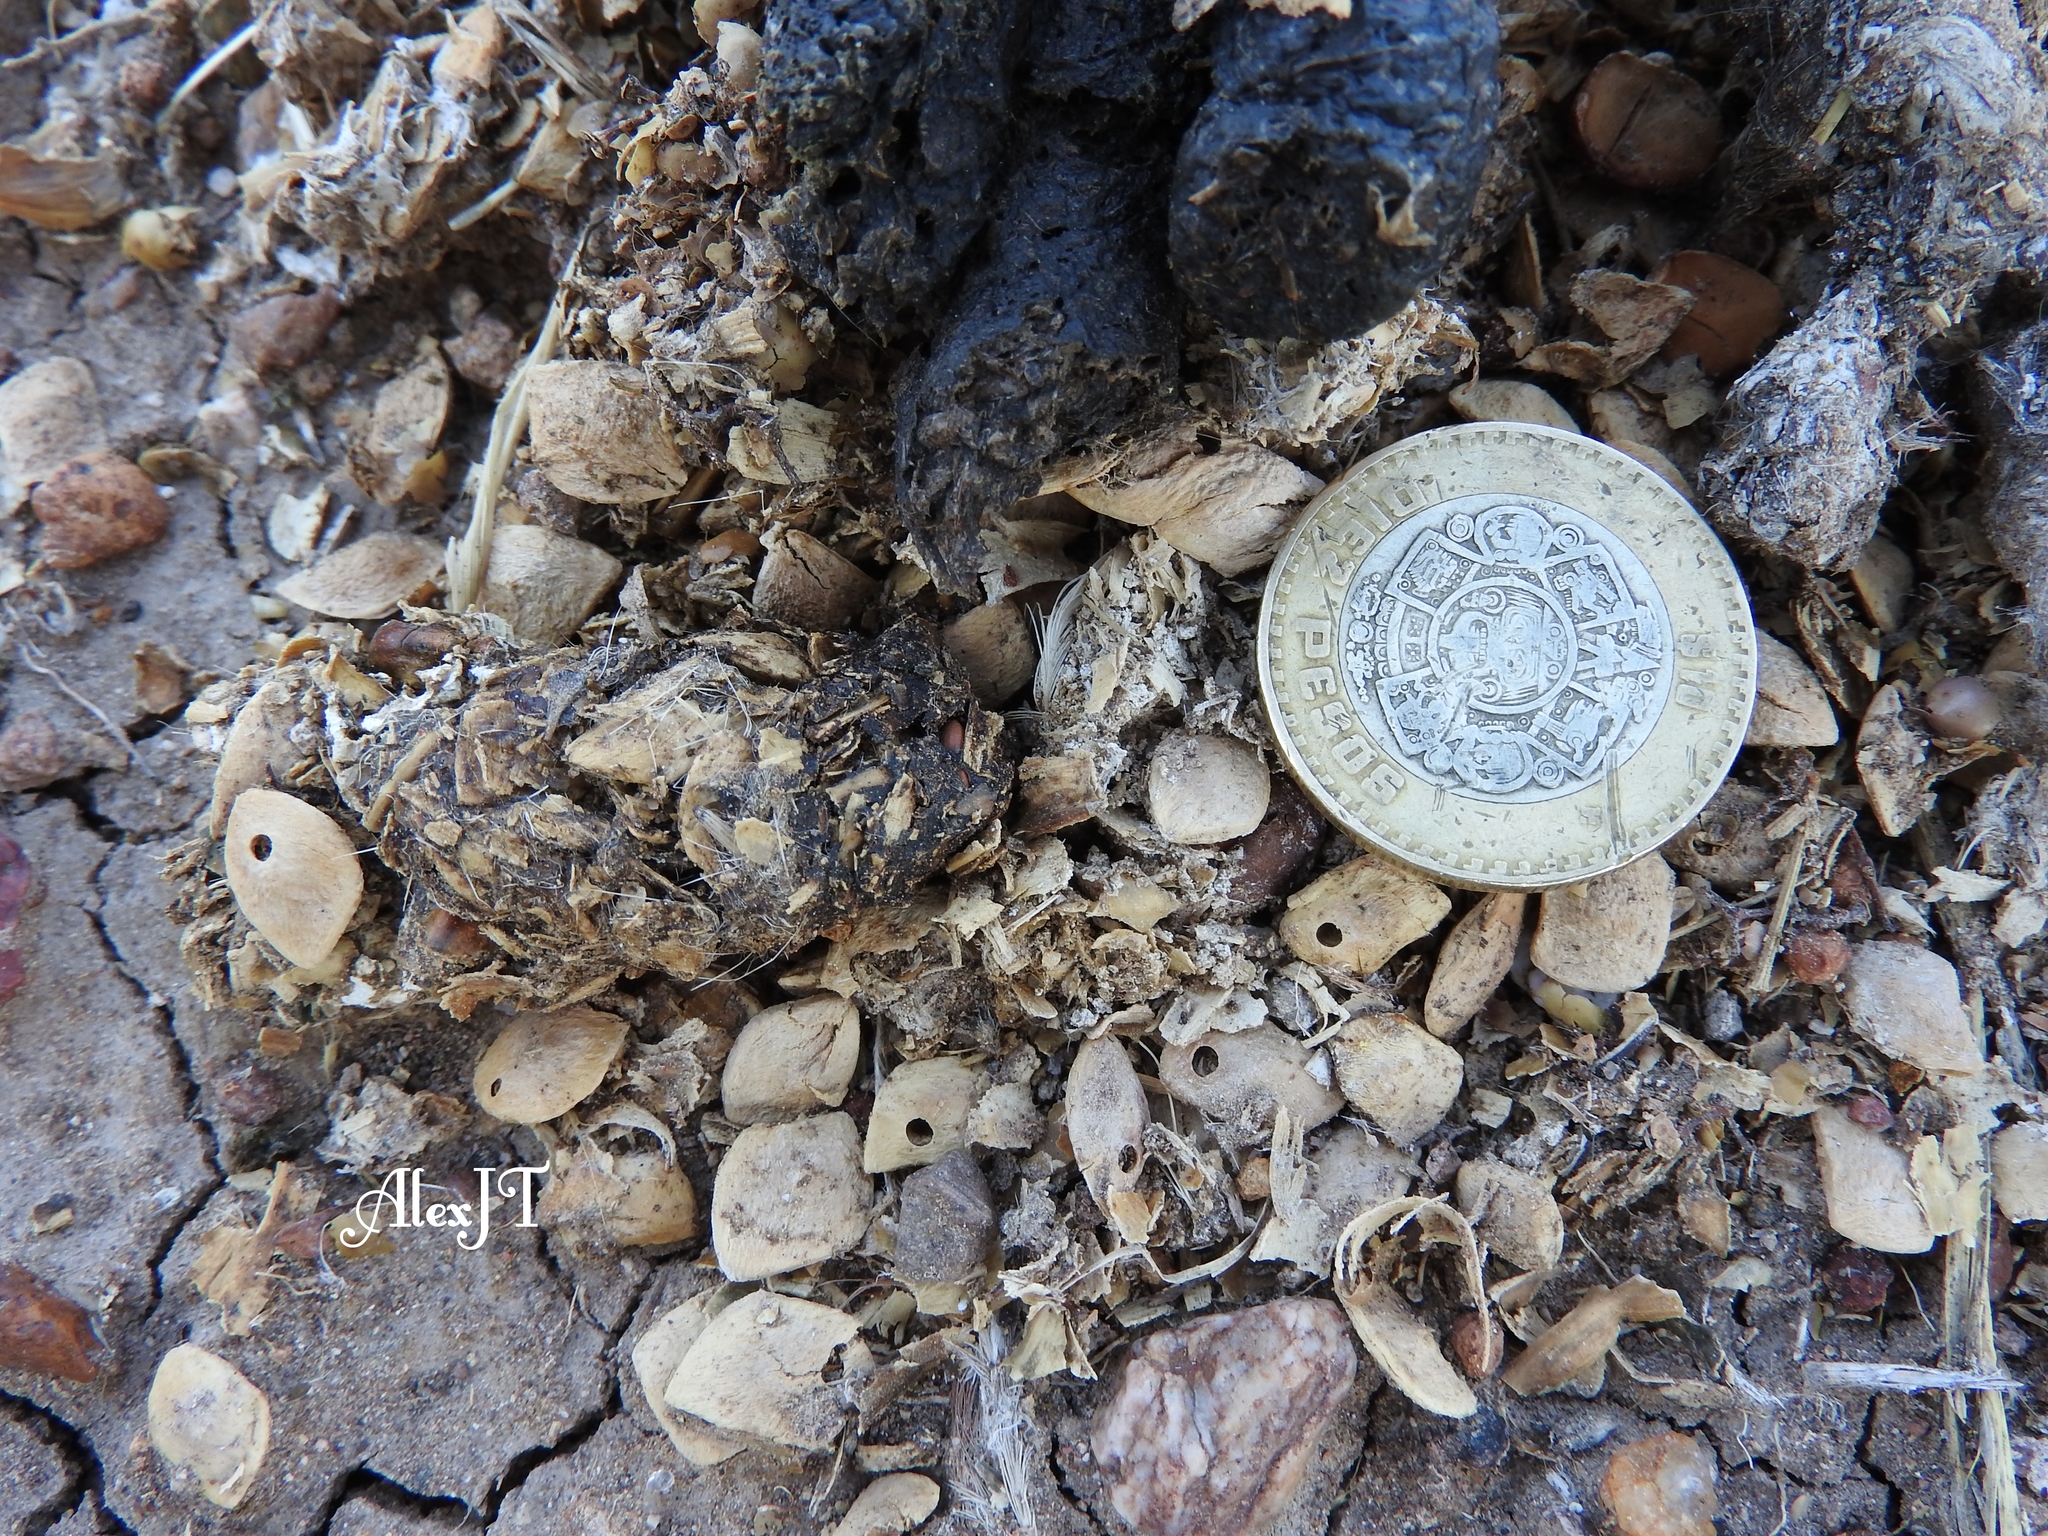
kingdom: Animalia
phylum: Chordata
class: Mammalia
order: Carnivora
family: Canidae
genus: Urocyon
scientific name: Urocyon cinereoargenteus
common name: Gray fox
